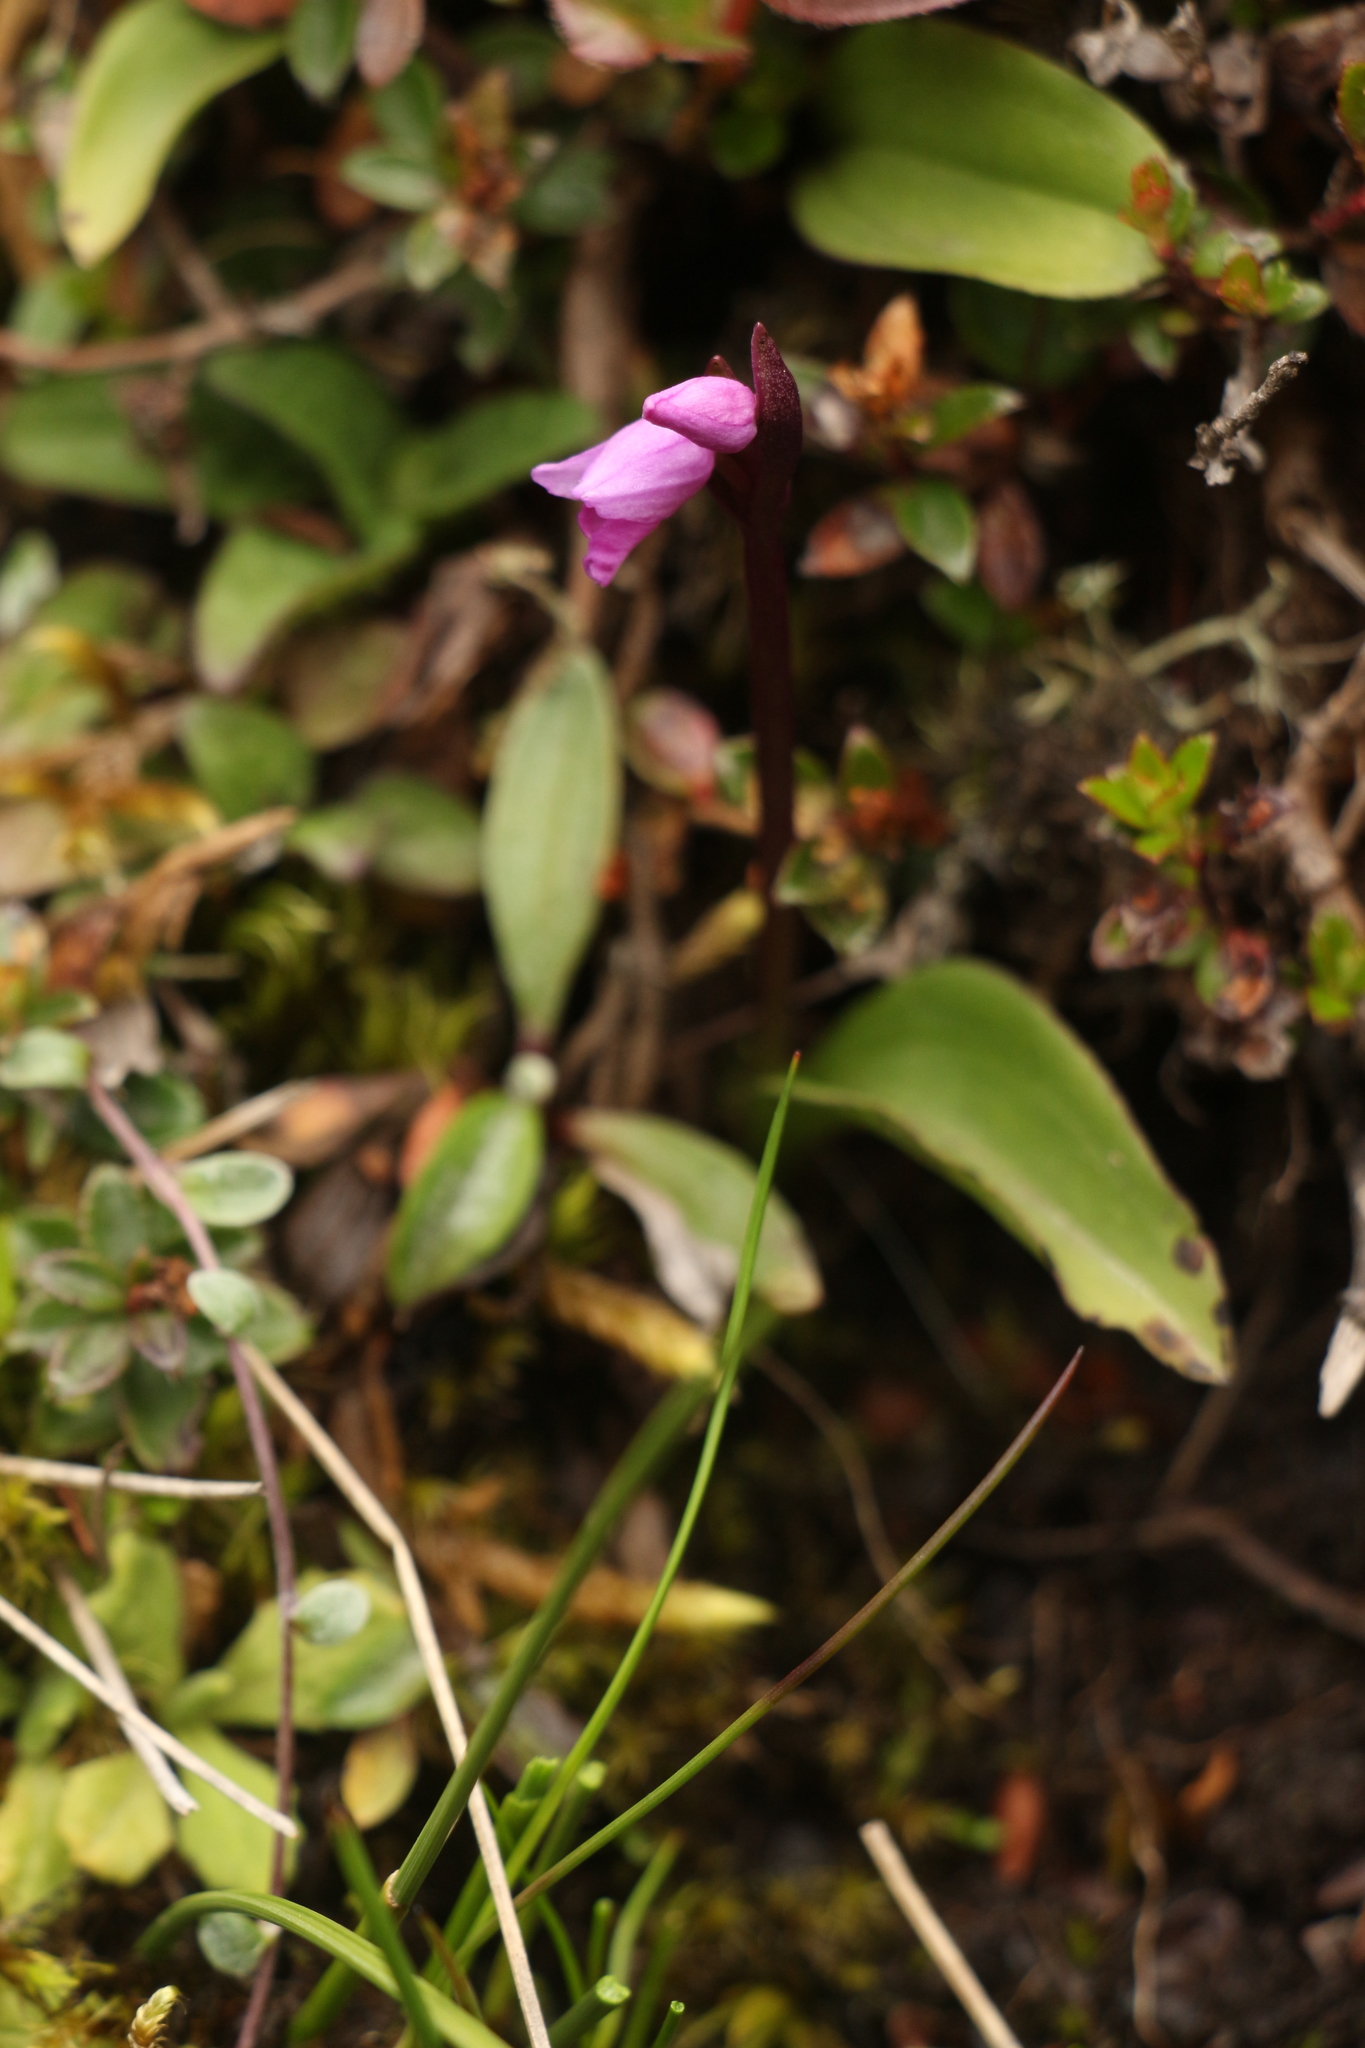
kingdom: Plantae
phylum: Tracheophyta
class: Liliopsida
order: Asparagales
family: Orchidaceae
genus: Galearis
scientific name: Galearis spathulata
